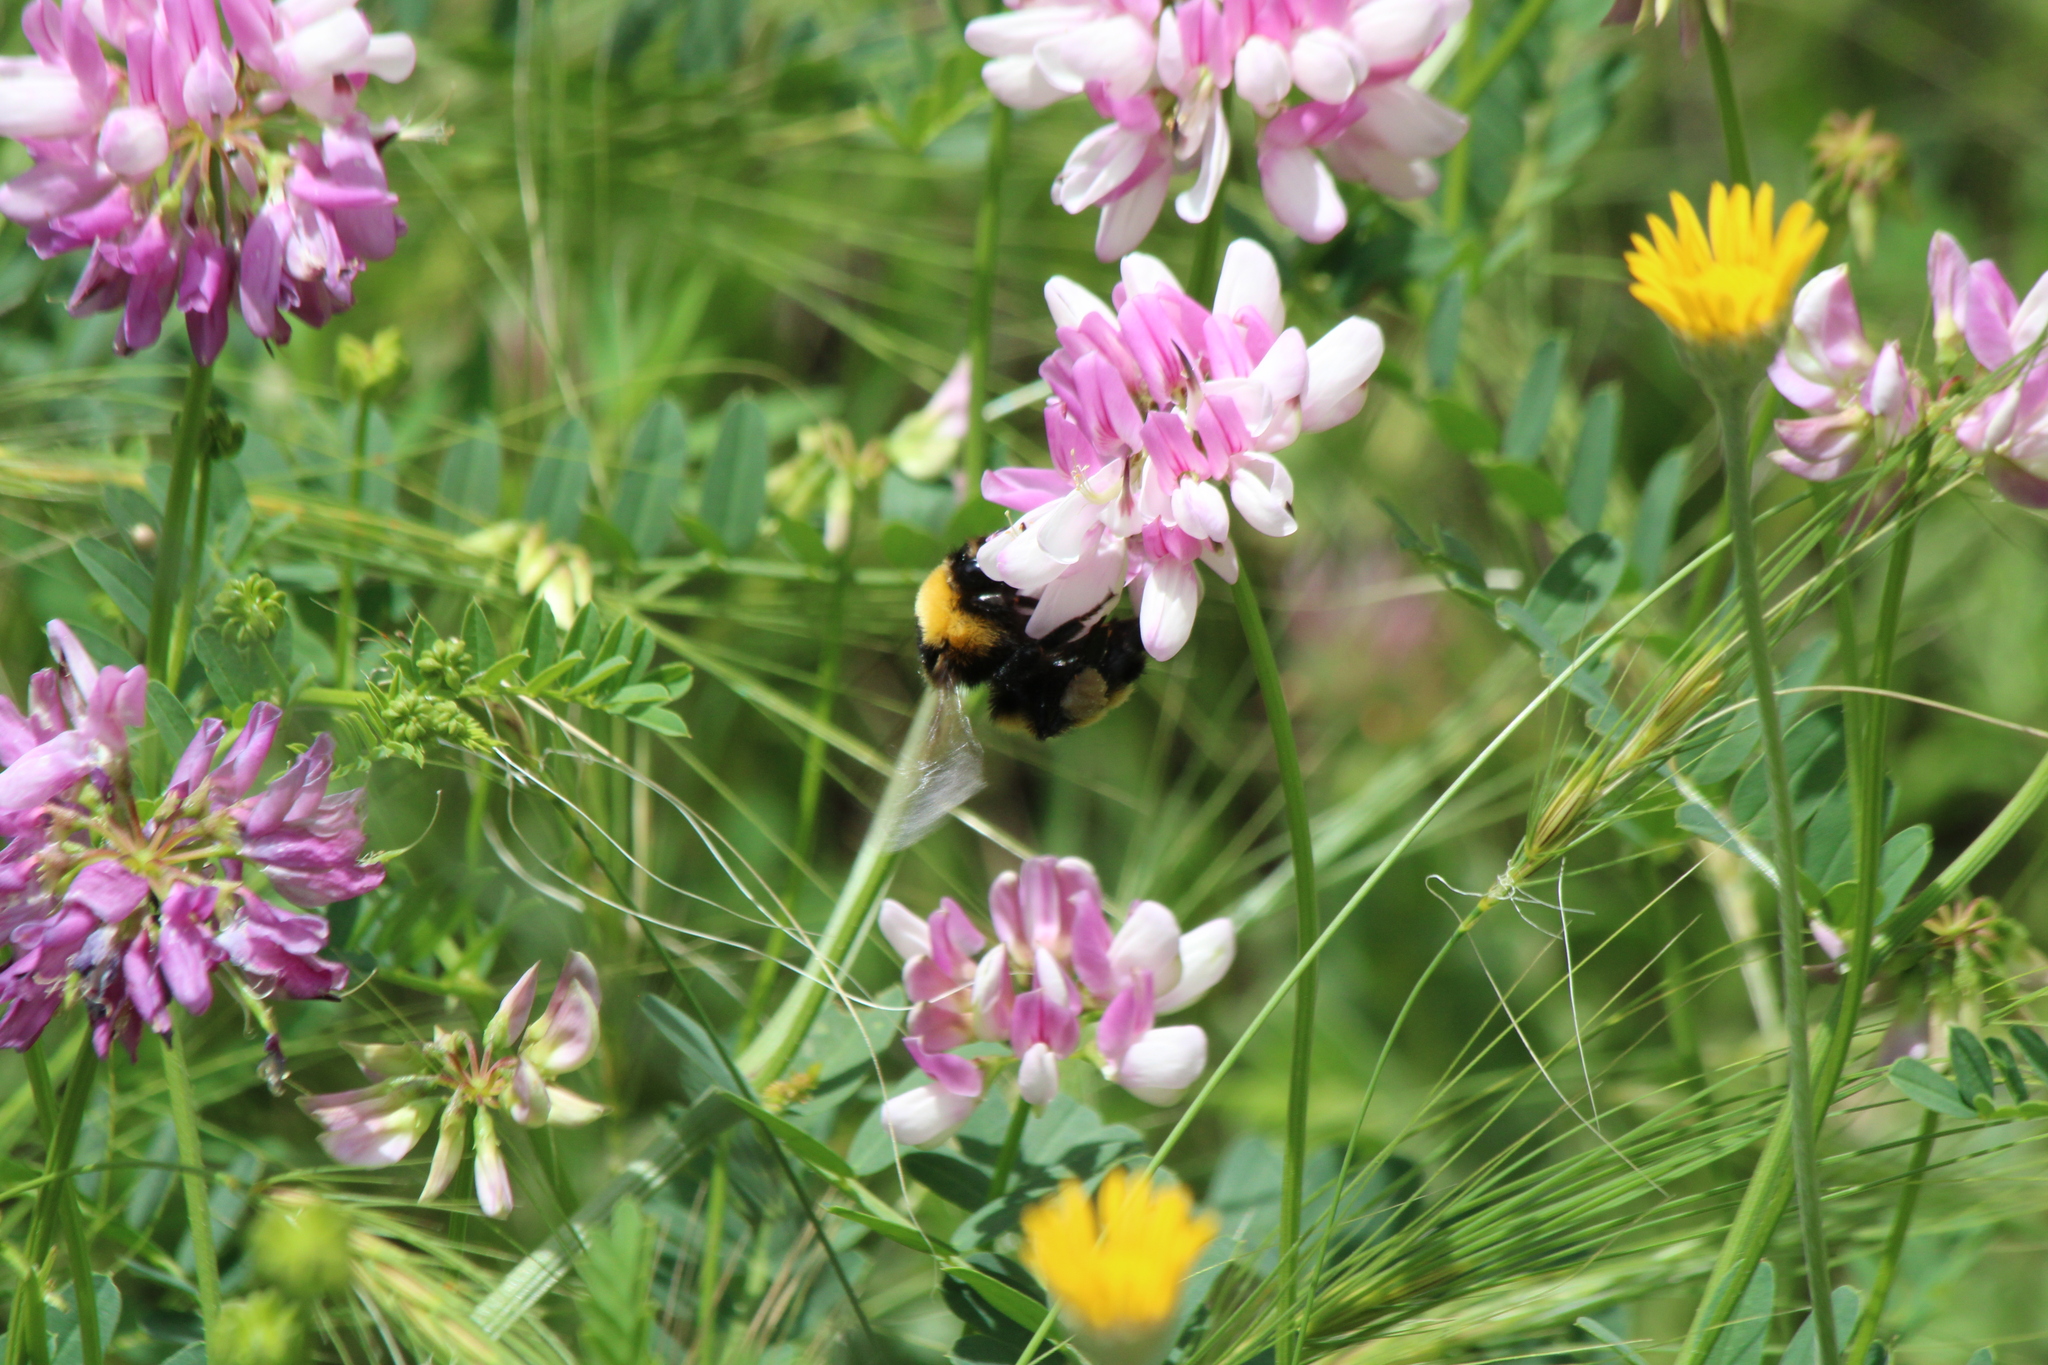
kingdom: Animalia
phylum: Arthropoda
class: Insecta
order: Hymenoptera
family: Apidae
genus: Bombus
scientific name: Bombus zonatus
